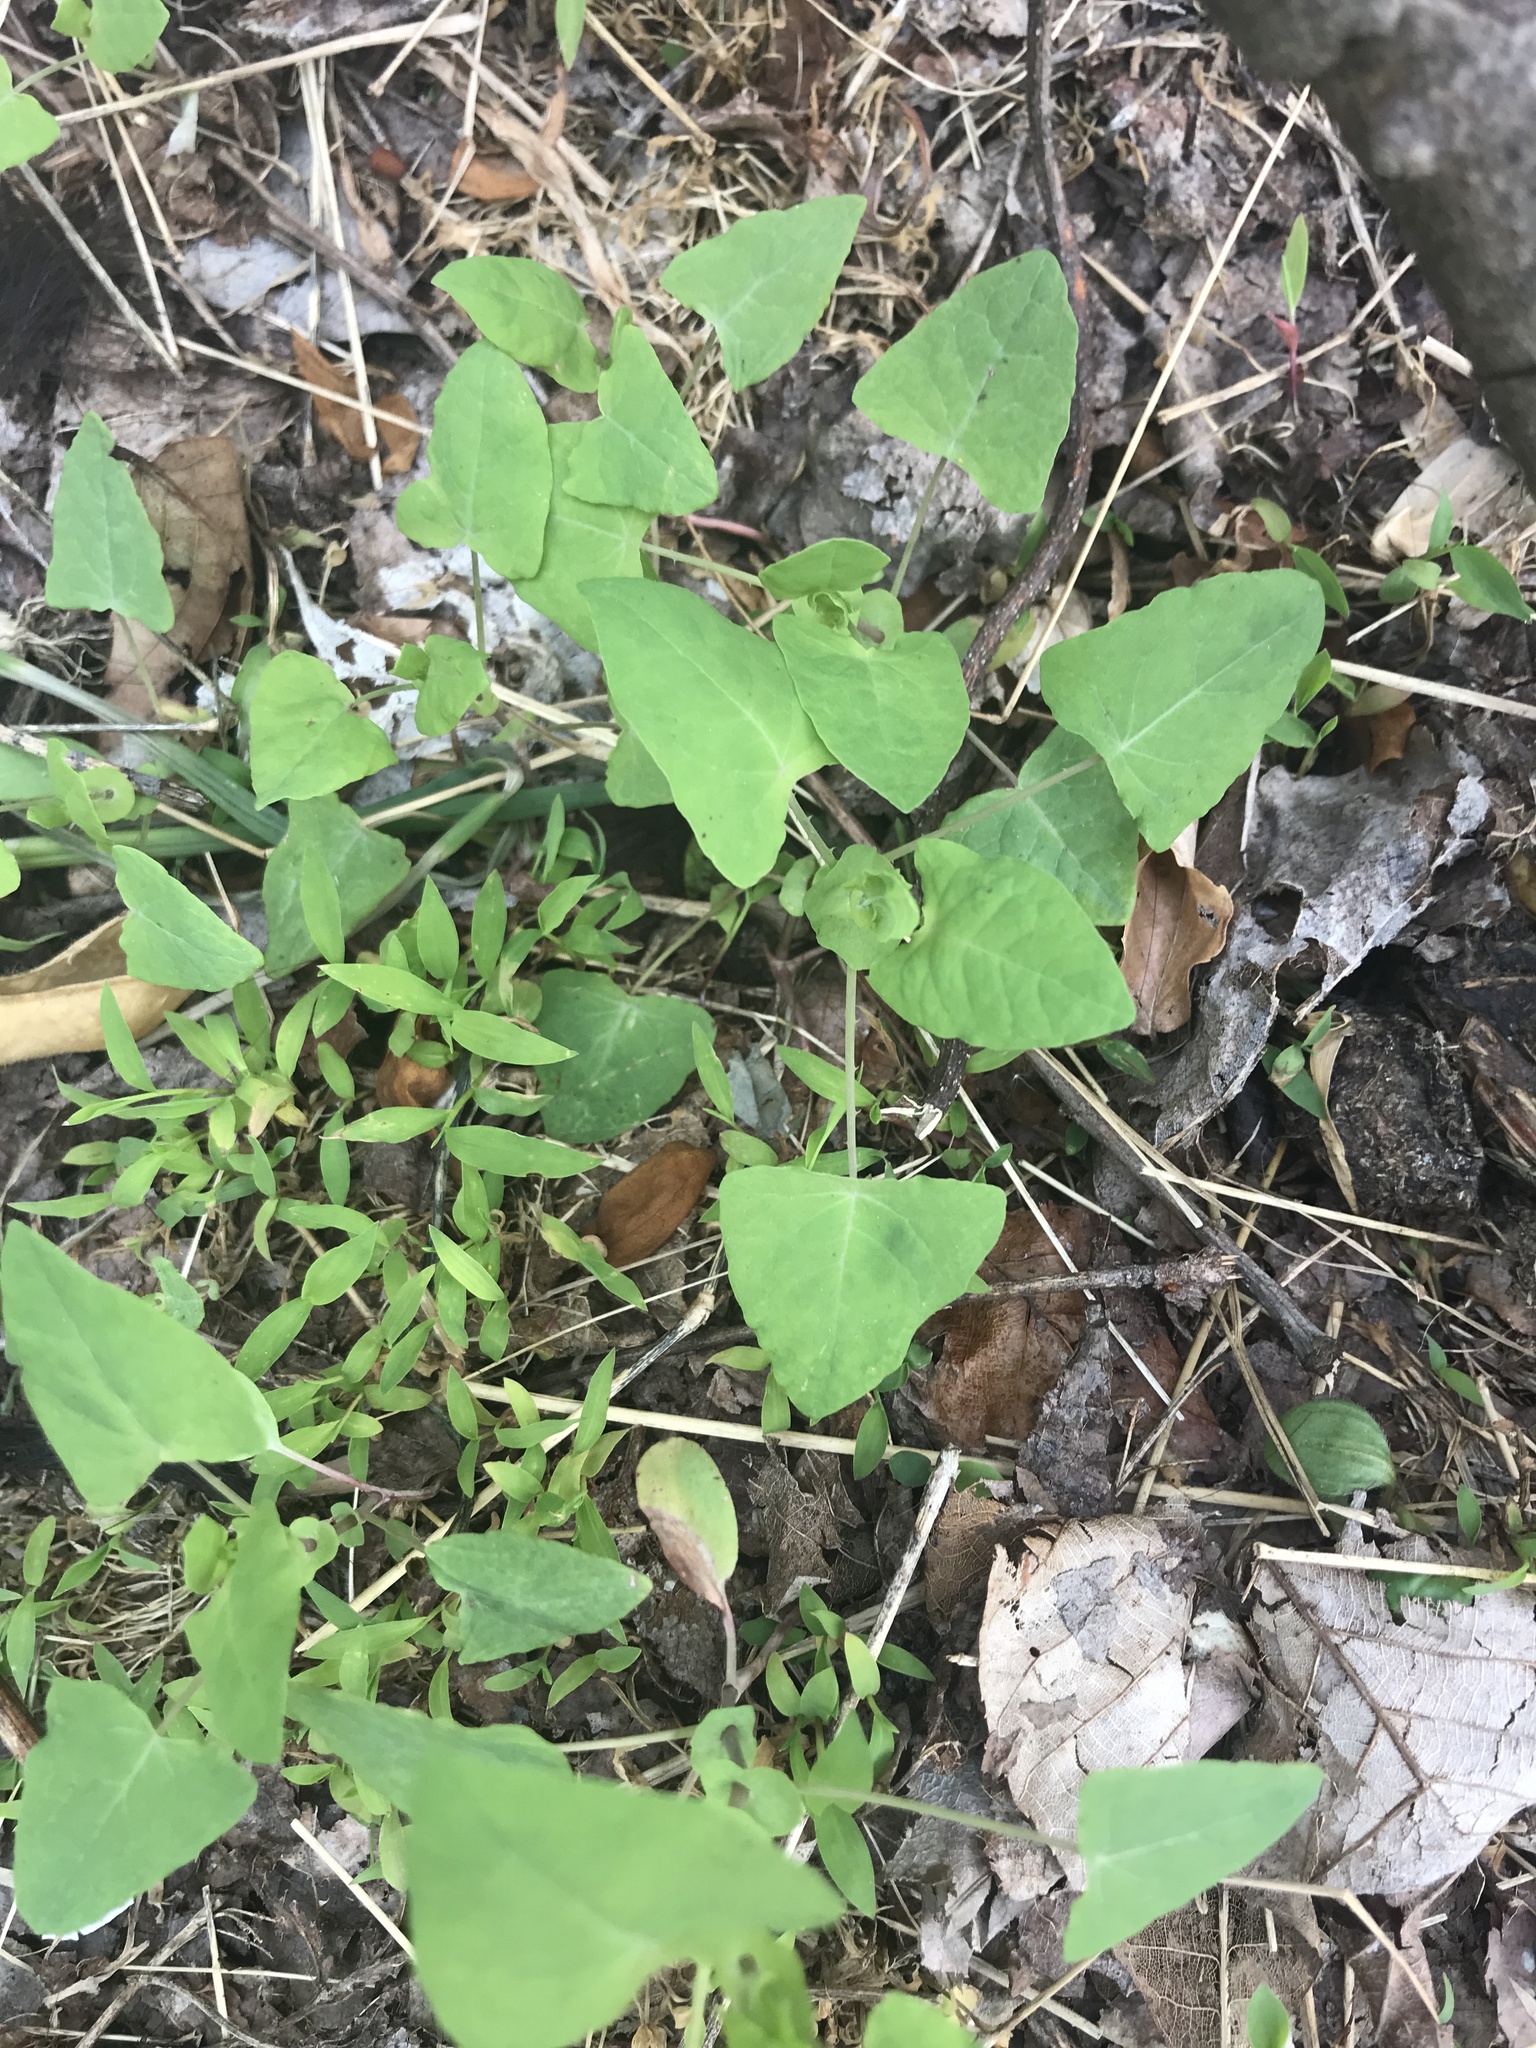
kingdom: Plantae
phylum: Tracheophyta
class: Magnoliopsida
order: Caryophyllales
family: Polygonaceae
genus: Persicaria
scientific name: Persicaria perfoliata
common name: Asiatic tearthumb
